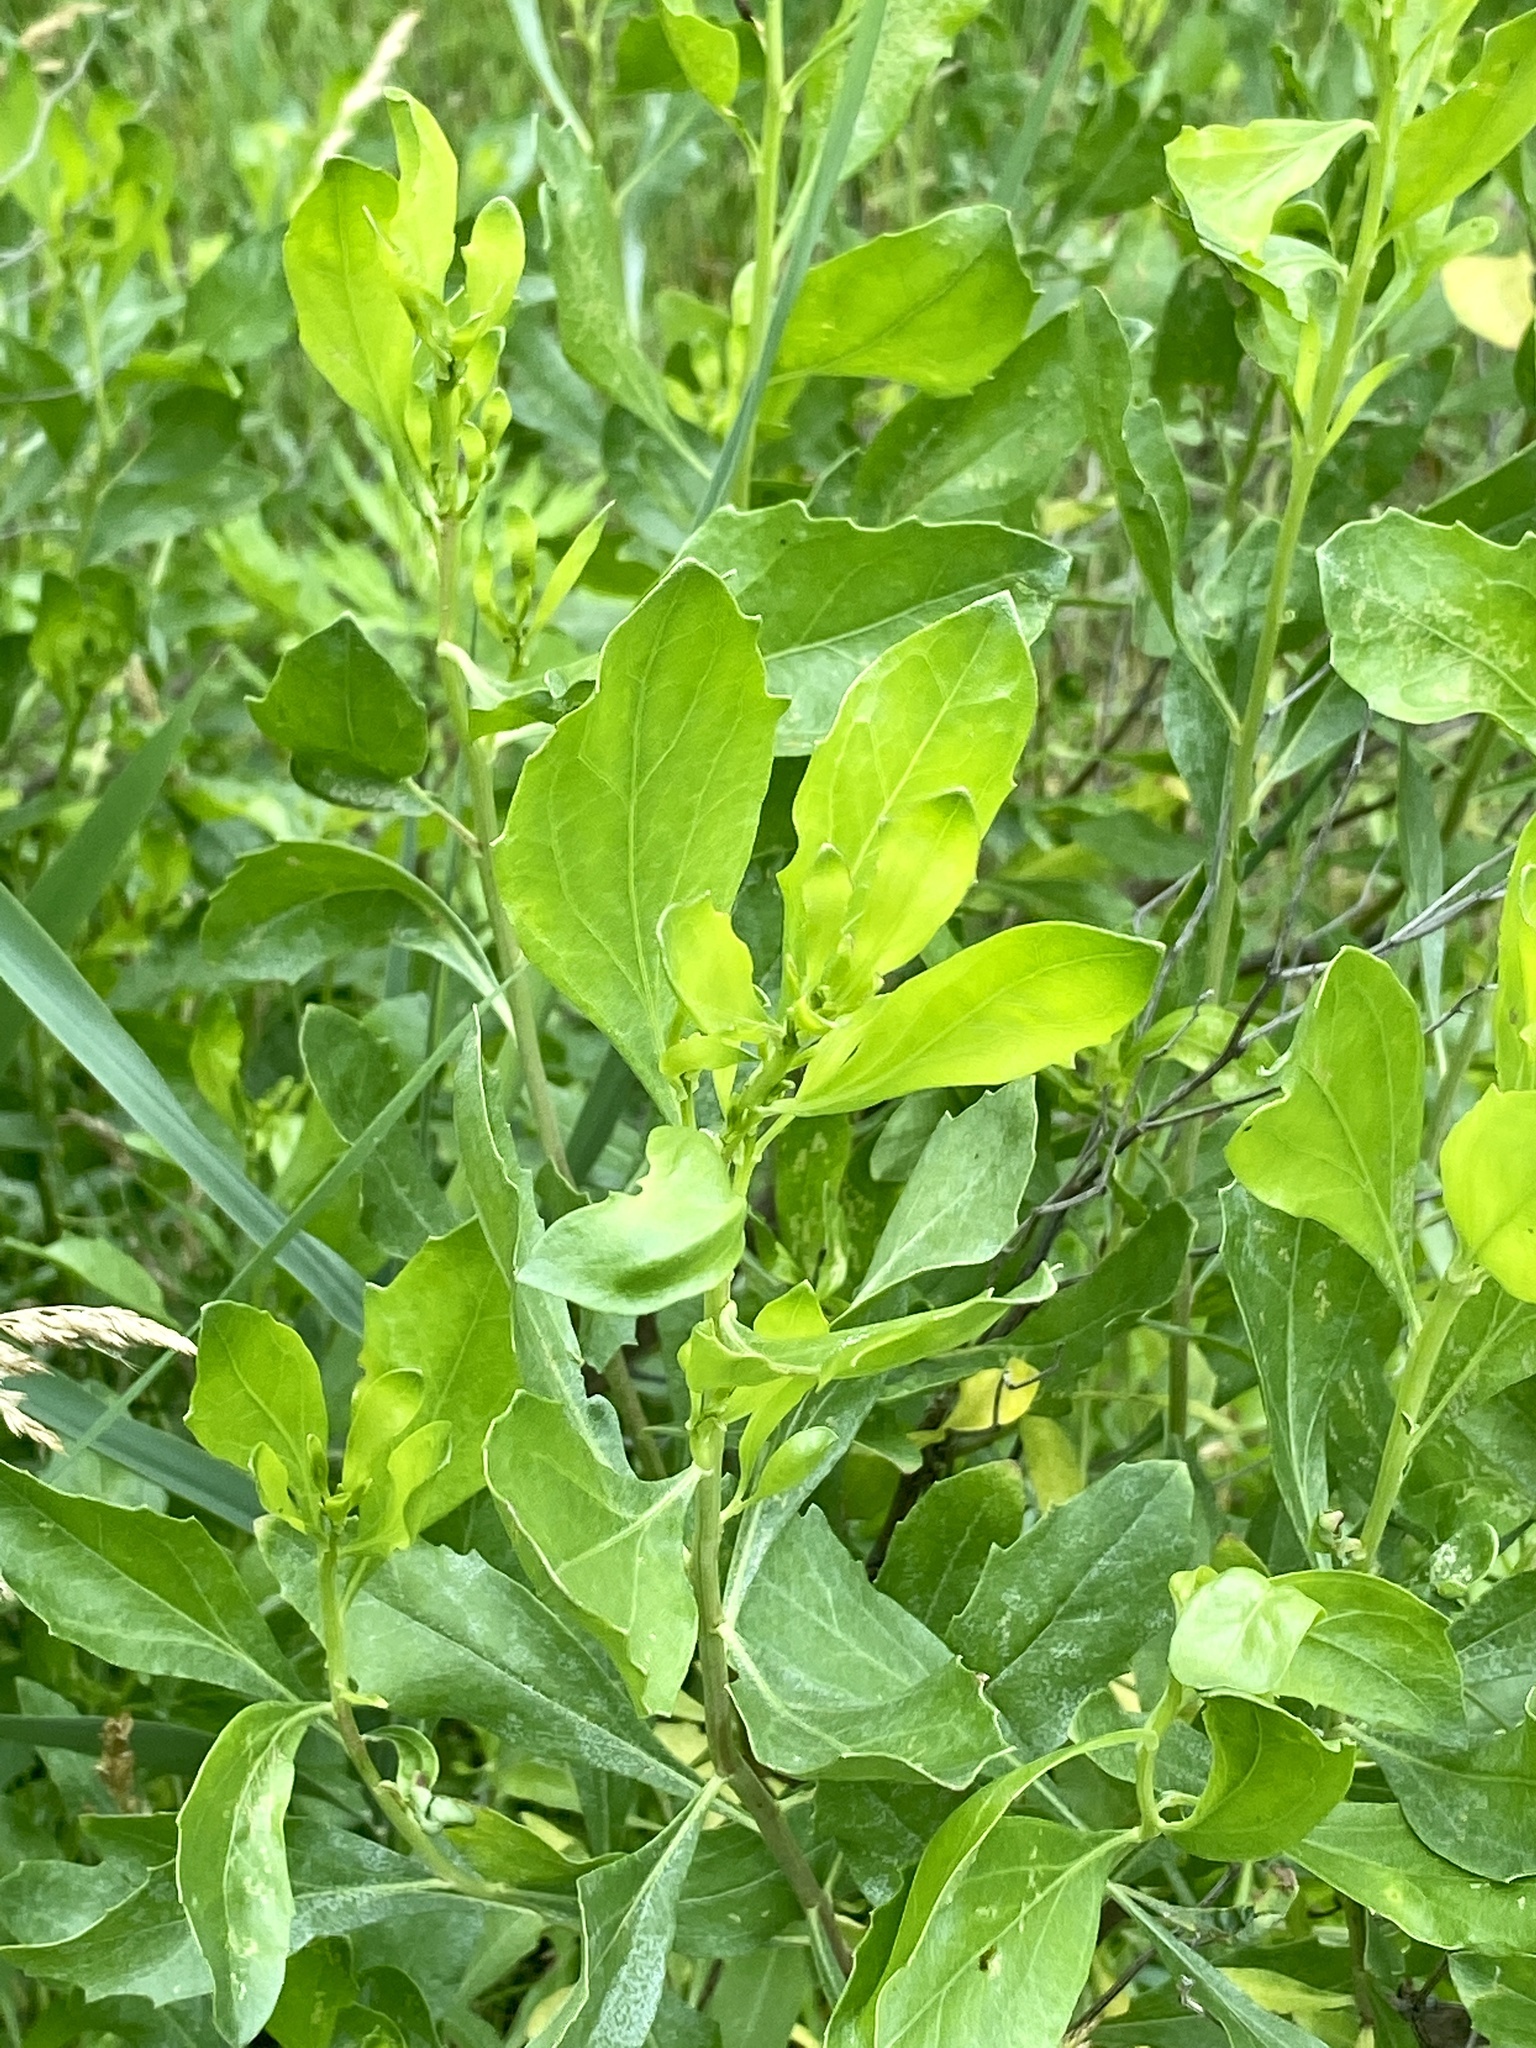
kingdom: Plantae
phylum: Tracheophyta
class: Magnoliopsida
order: Asterales
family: Asteraceae
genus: Baccharis
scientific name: Baccharis halimifolia
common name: Eastern baccharis
